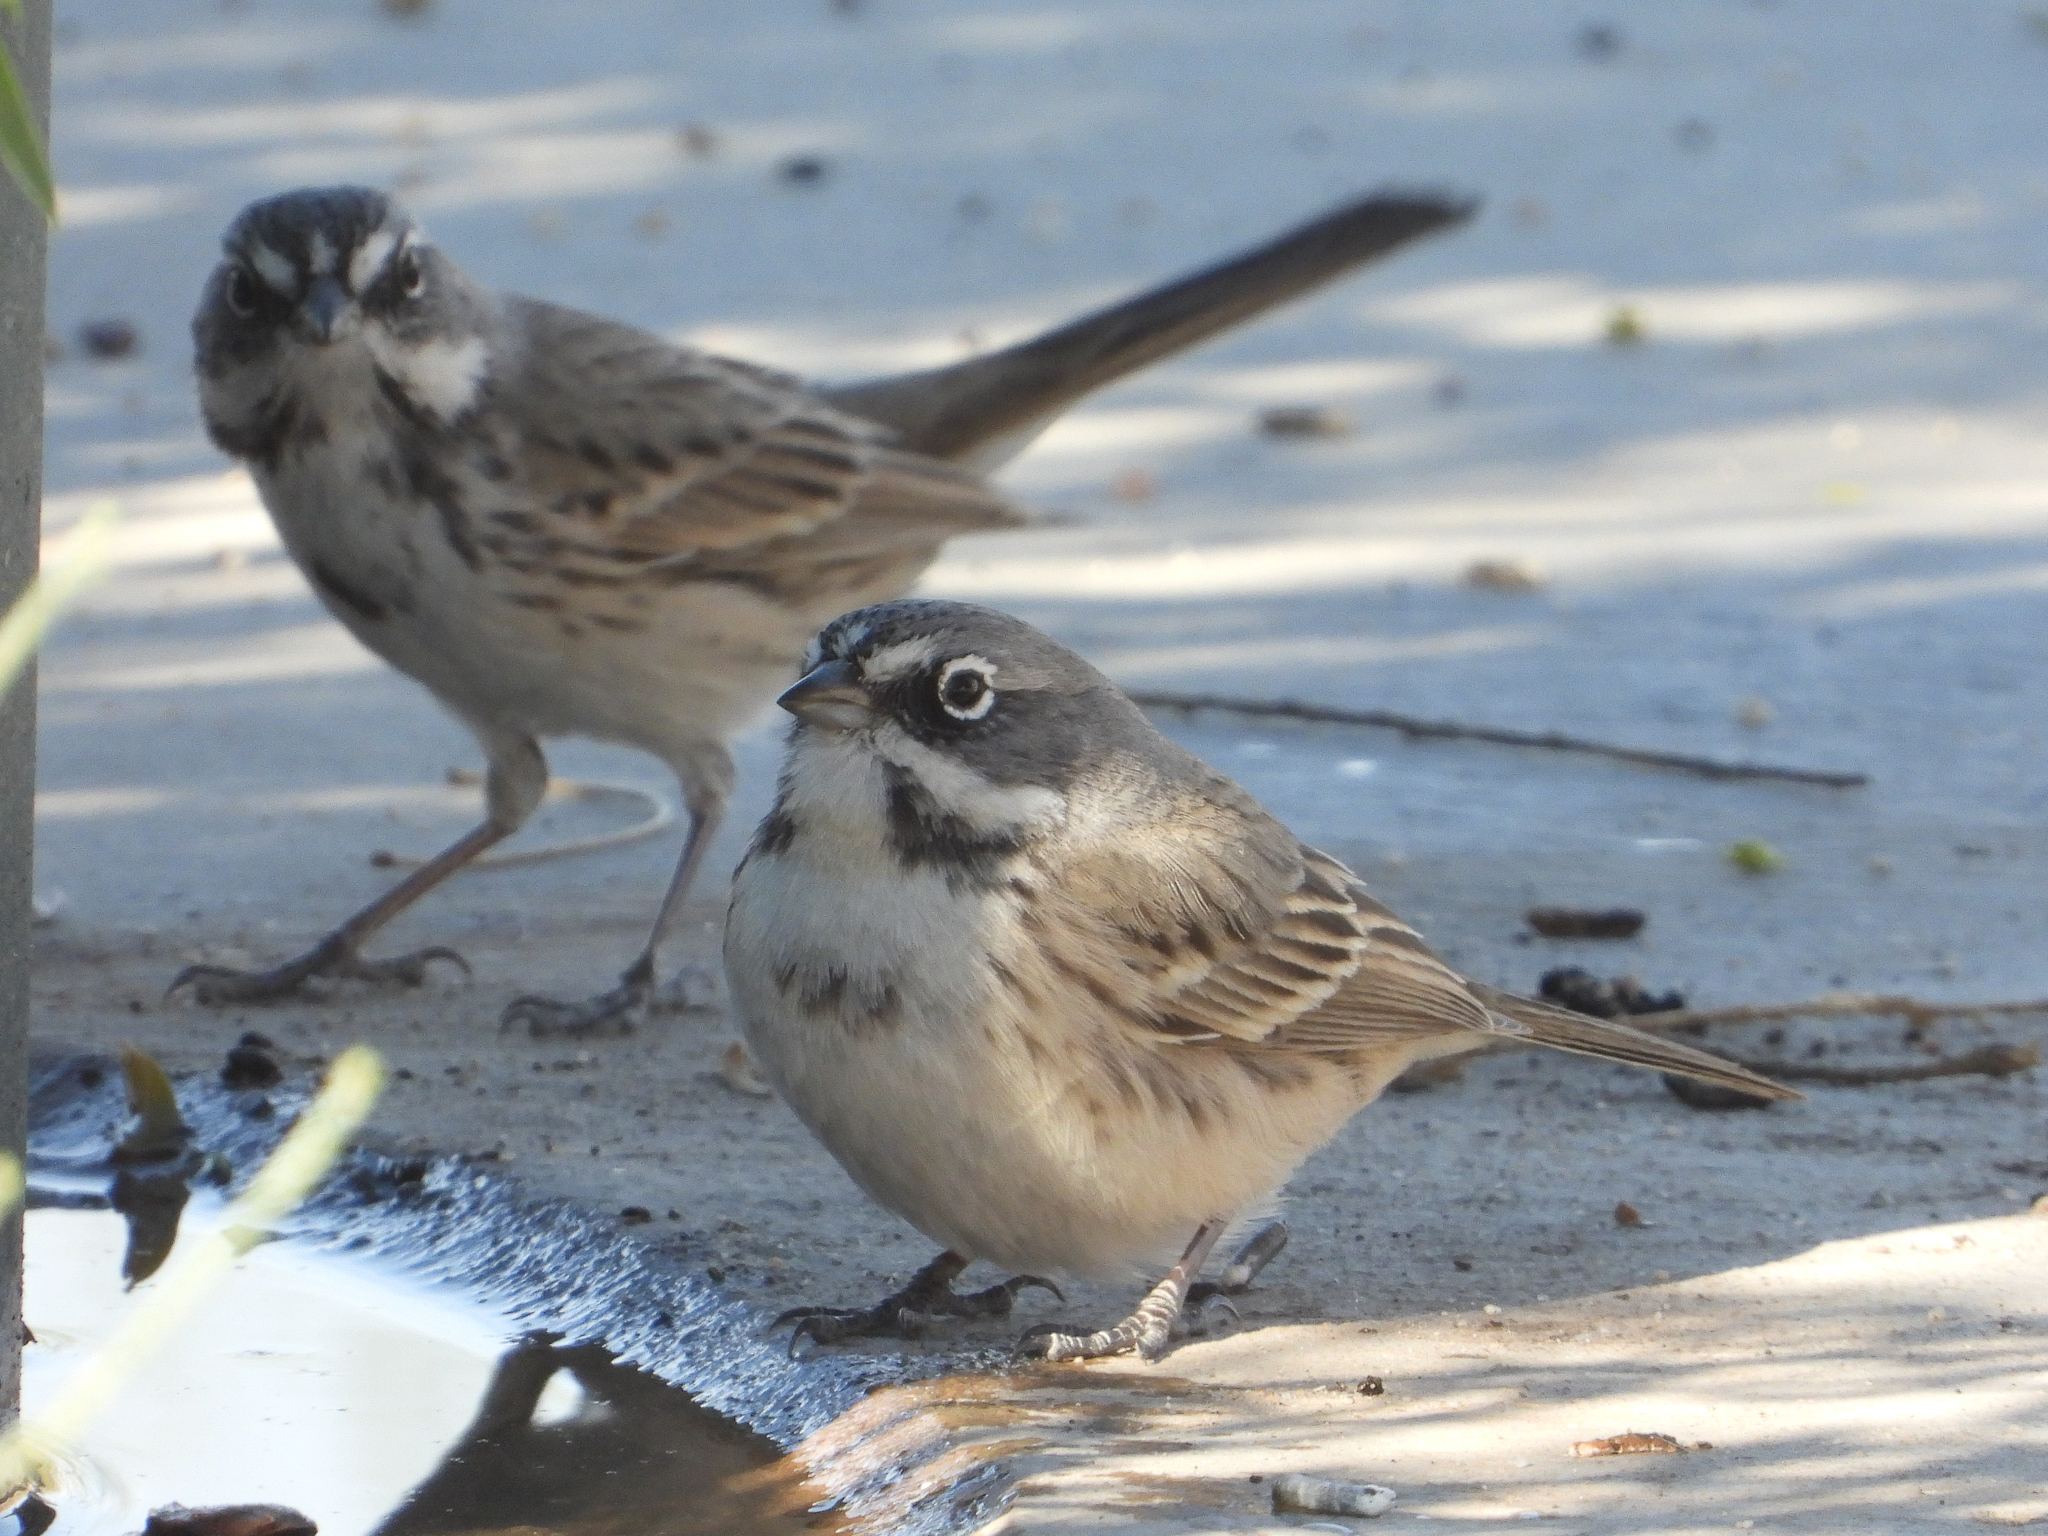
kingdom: Animalia
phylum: Chordata
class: Aves
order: Passeriformes
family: Passerellidae
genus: Artemisiospiza
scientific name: Artemisiospiza belli
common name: Bell's sparrow
